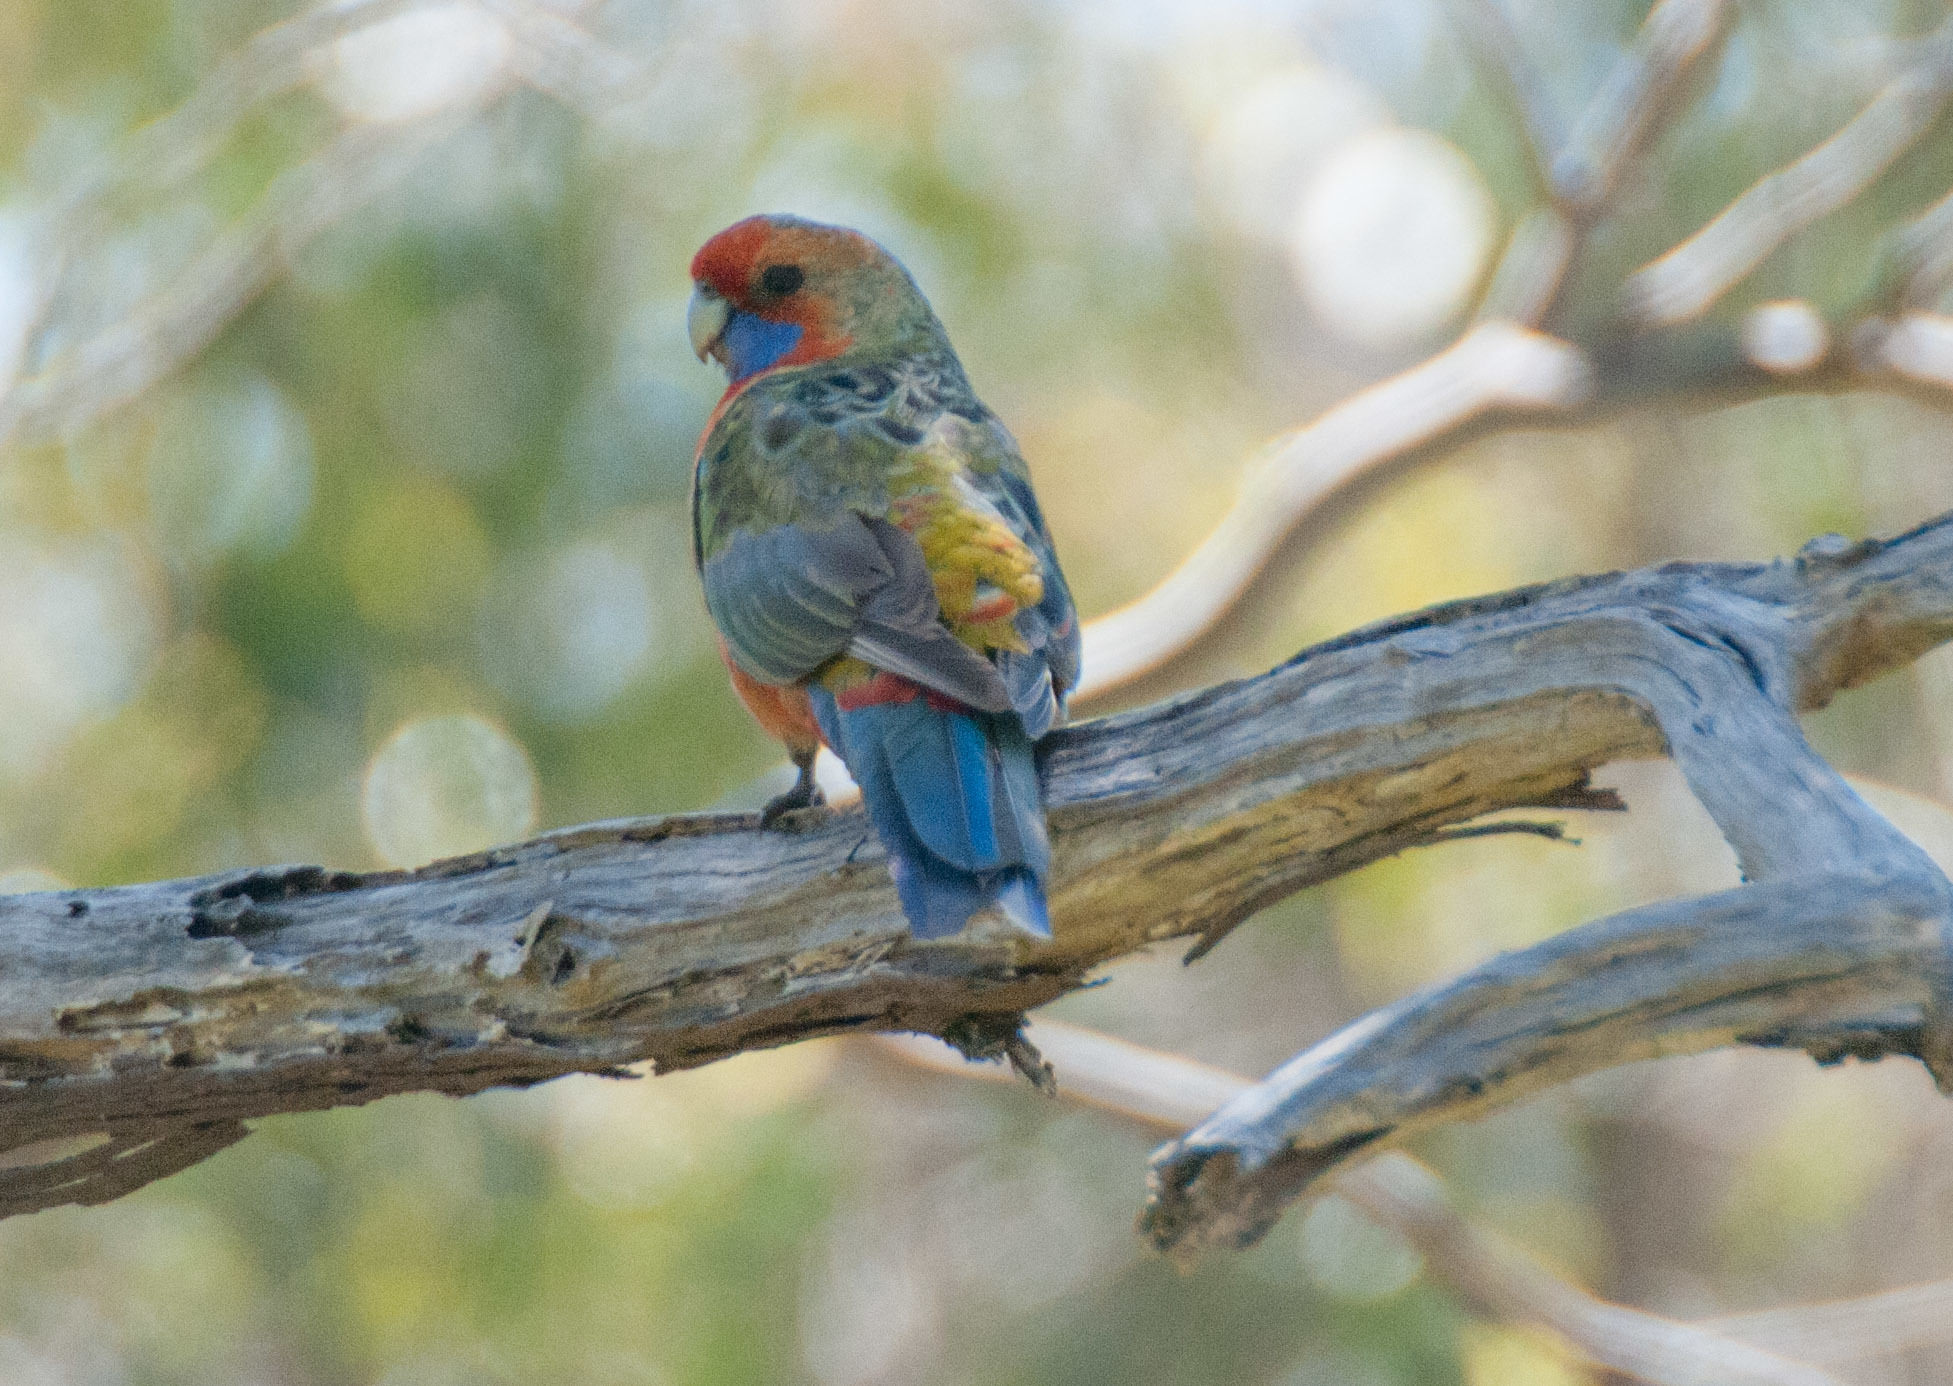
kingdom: Animalia
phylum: Chordata
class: Aves
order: Psittaciformes
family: Psittacidae
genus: Platycercus
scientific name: Platycercus elegans
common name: Crimson rosella
